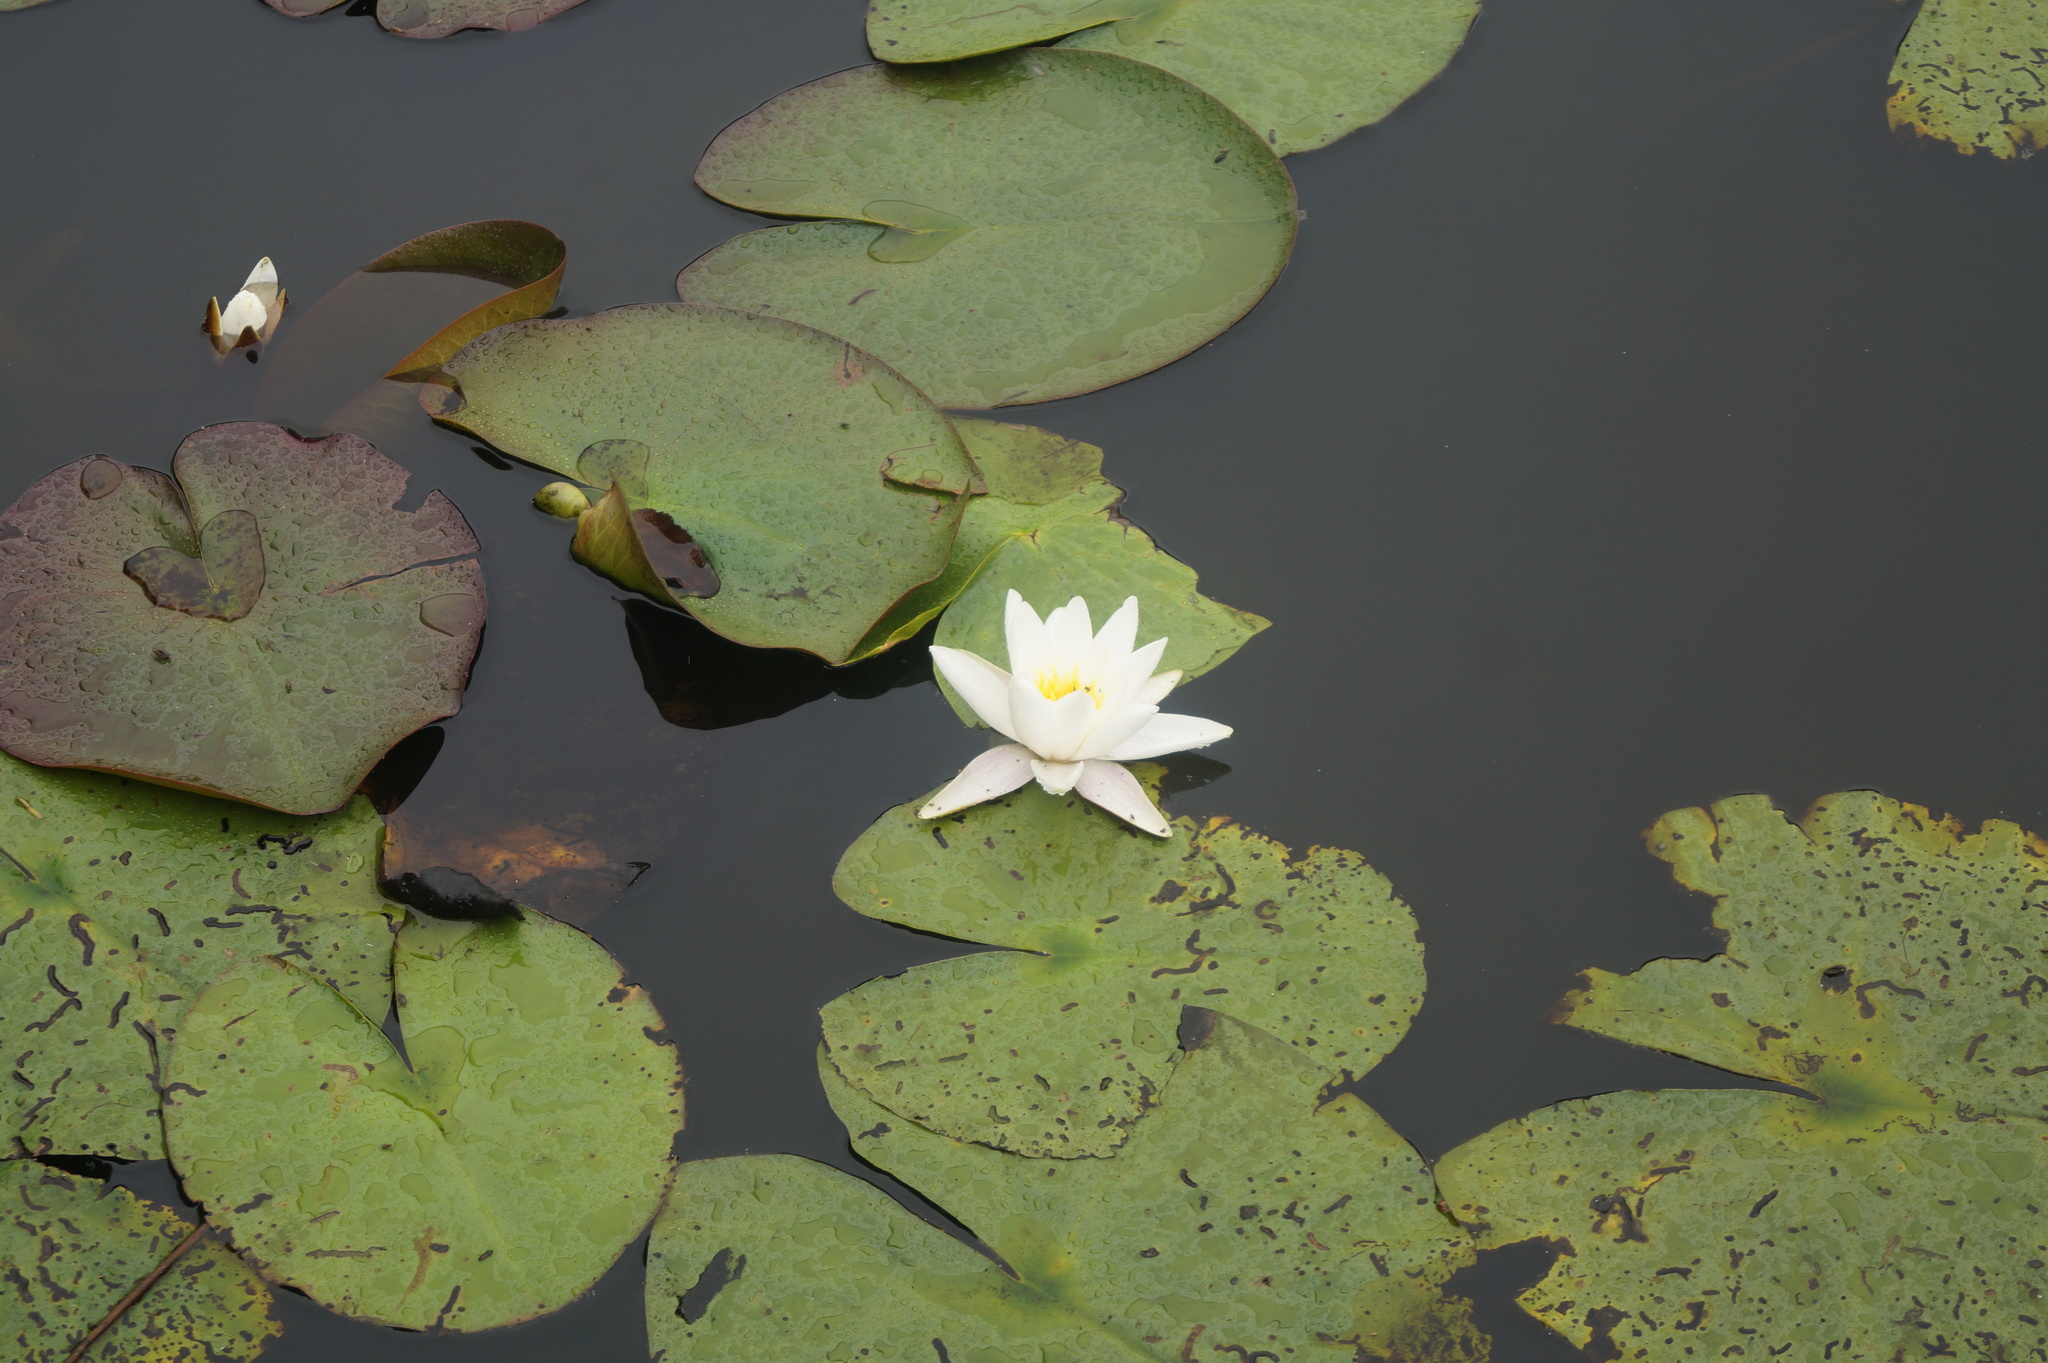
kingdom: Plantae
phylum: Tracheophyta
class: Magnoliopsida
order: Nymphaeales
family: Nymphaeaceae
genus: Nymphaea
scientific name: Nymphaea alba
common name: White water-lily
